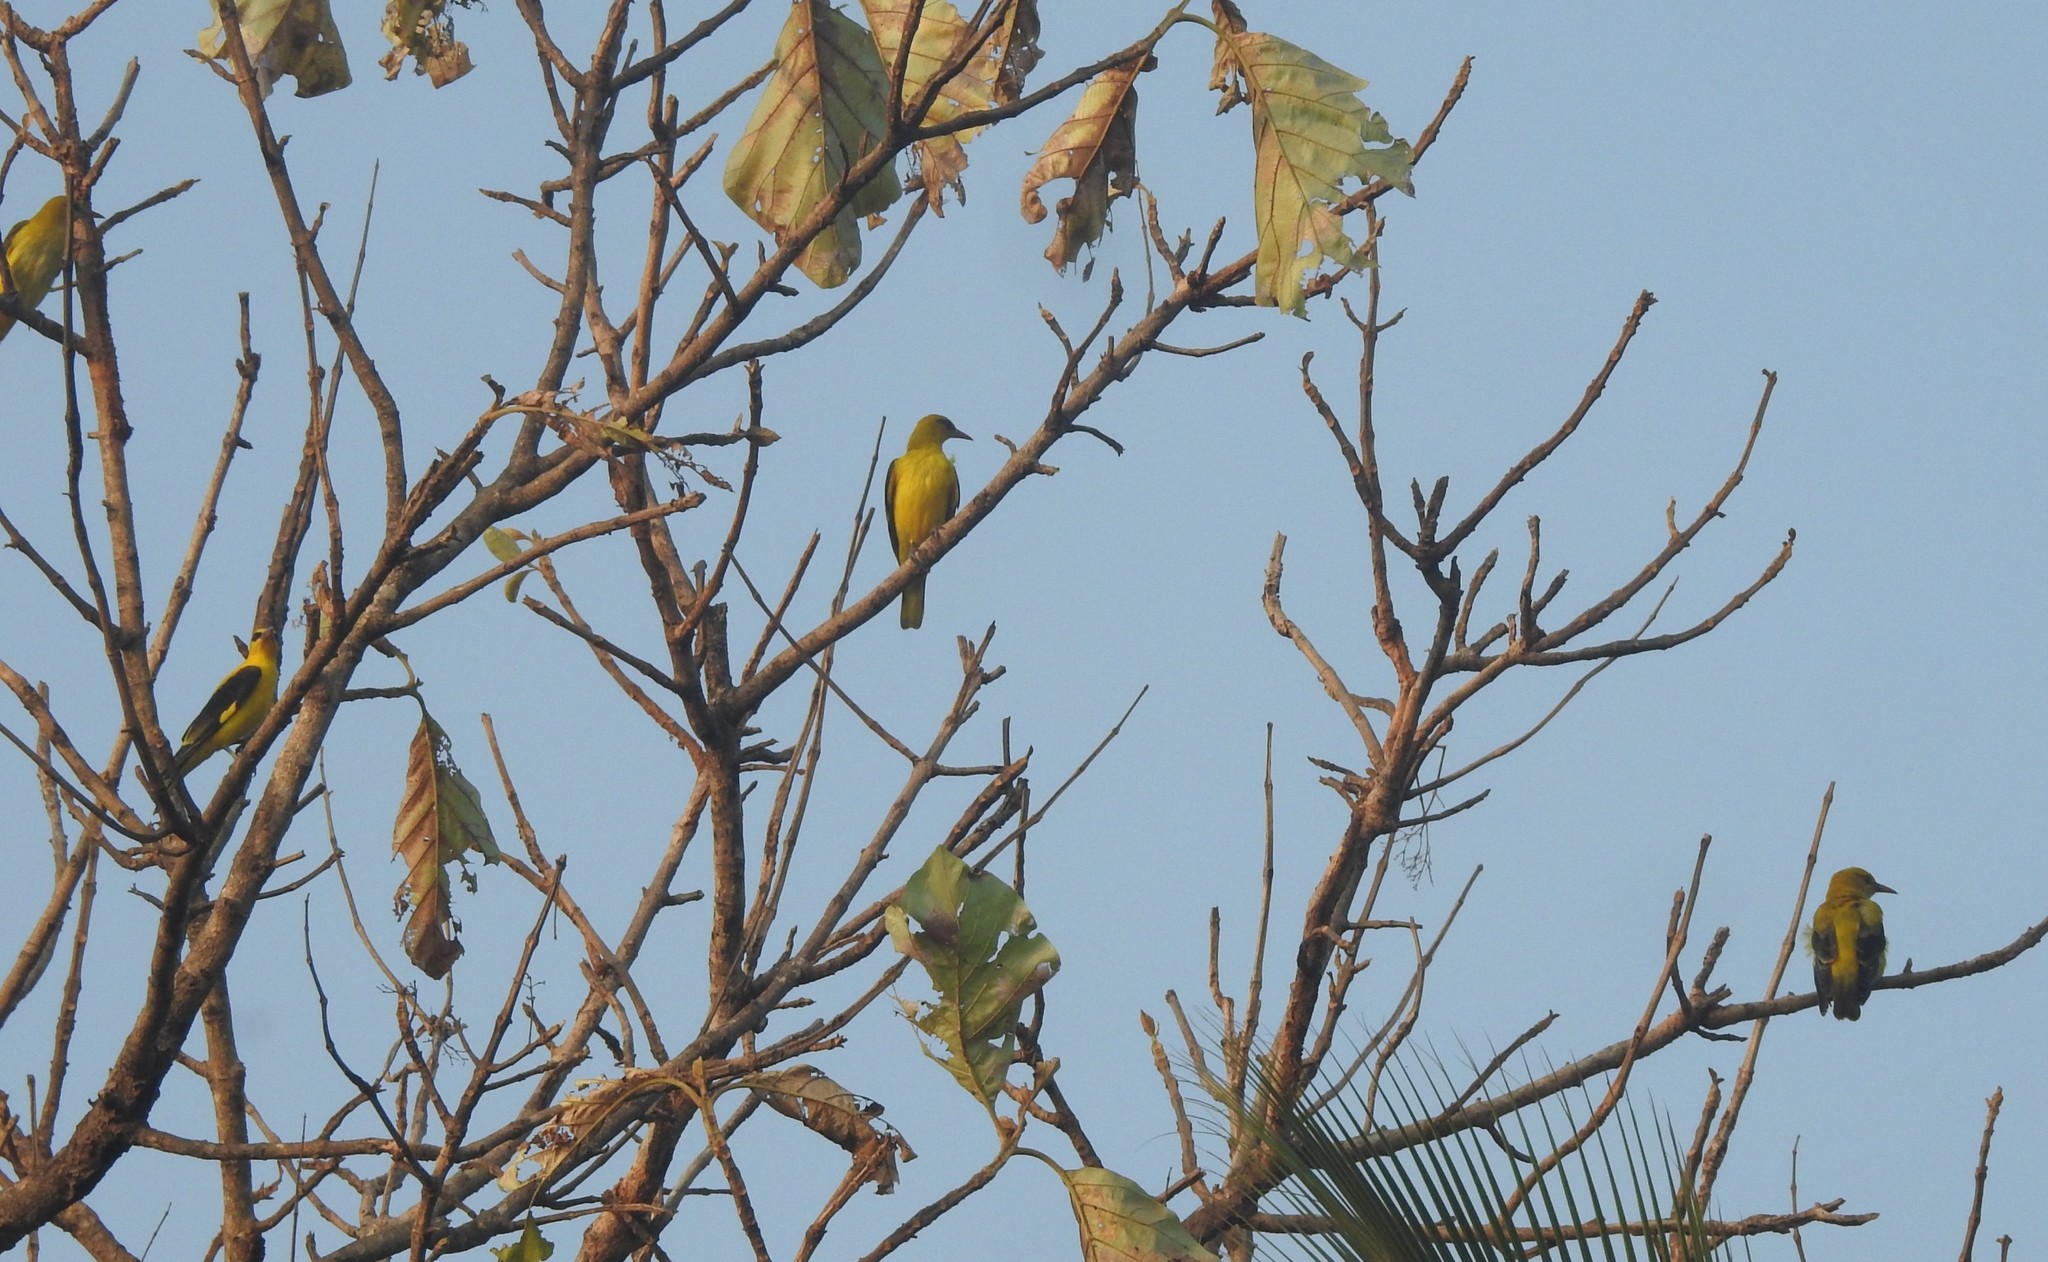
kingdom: Animalia
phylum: Chordata
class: Aves
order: Passeriformes
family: Oriolidae
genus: Oriolus
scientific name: Oriolus kundoo
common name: Indian golden oriole
